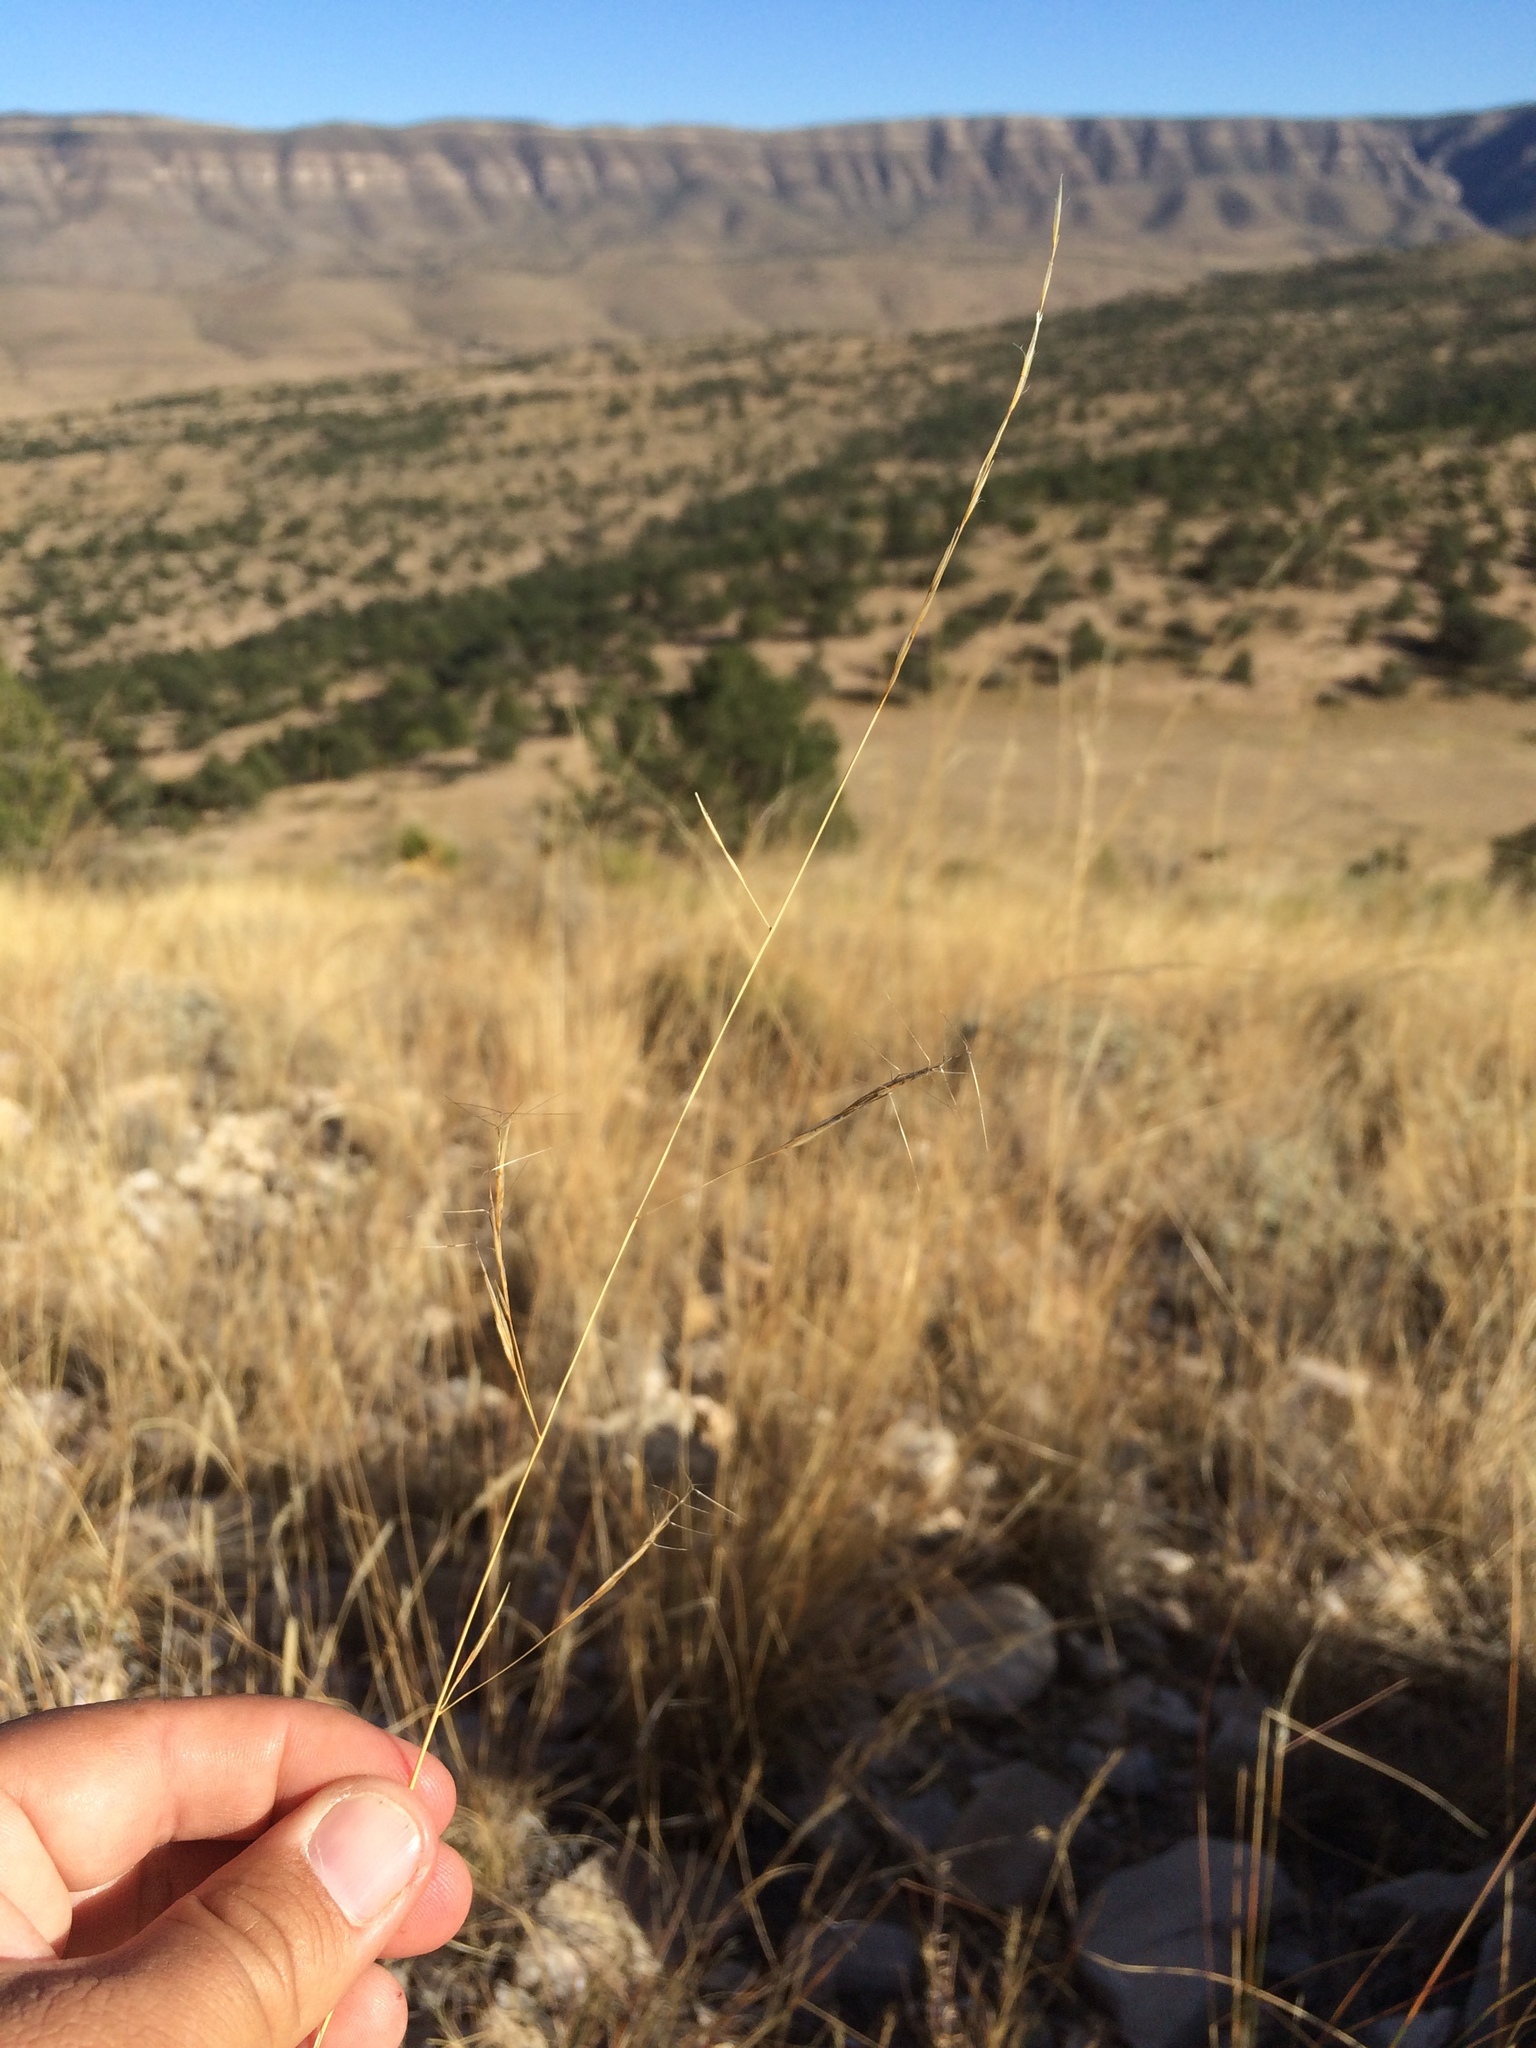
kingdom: Plantae
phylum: Tracheophyta
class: Liliopsida
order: Poales
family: Poaceae
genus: Aristida
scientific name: Aristida divaricata
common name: Poverty grass
